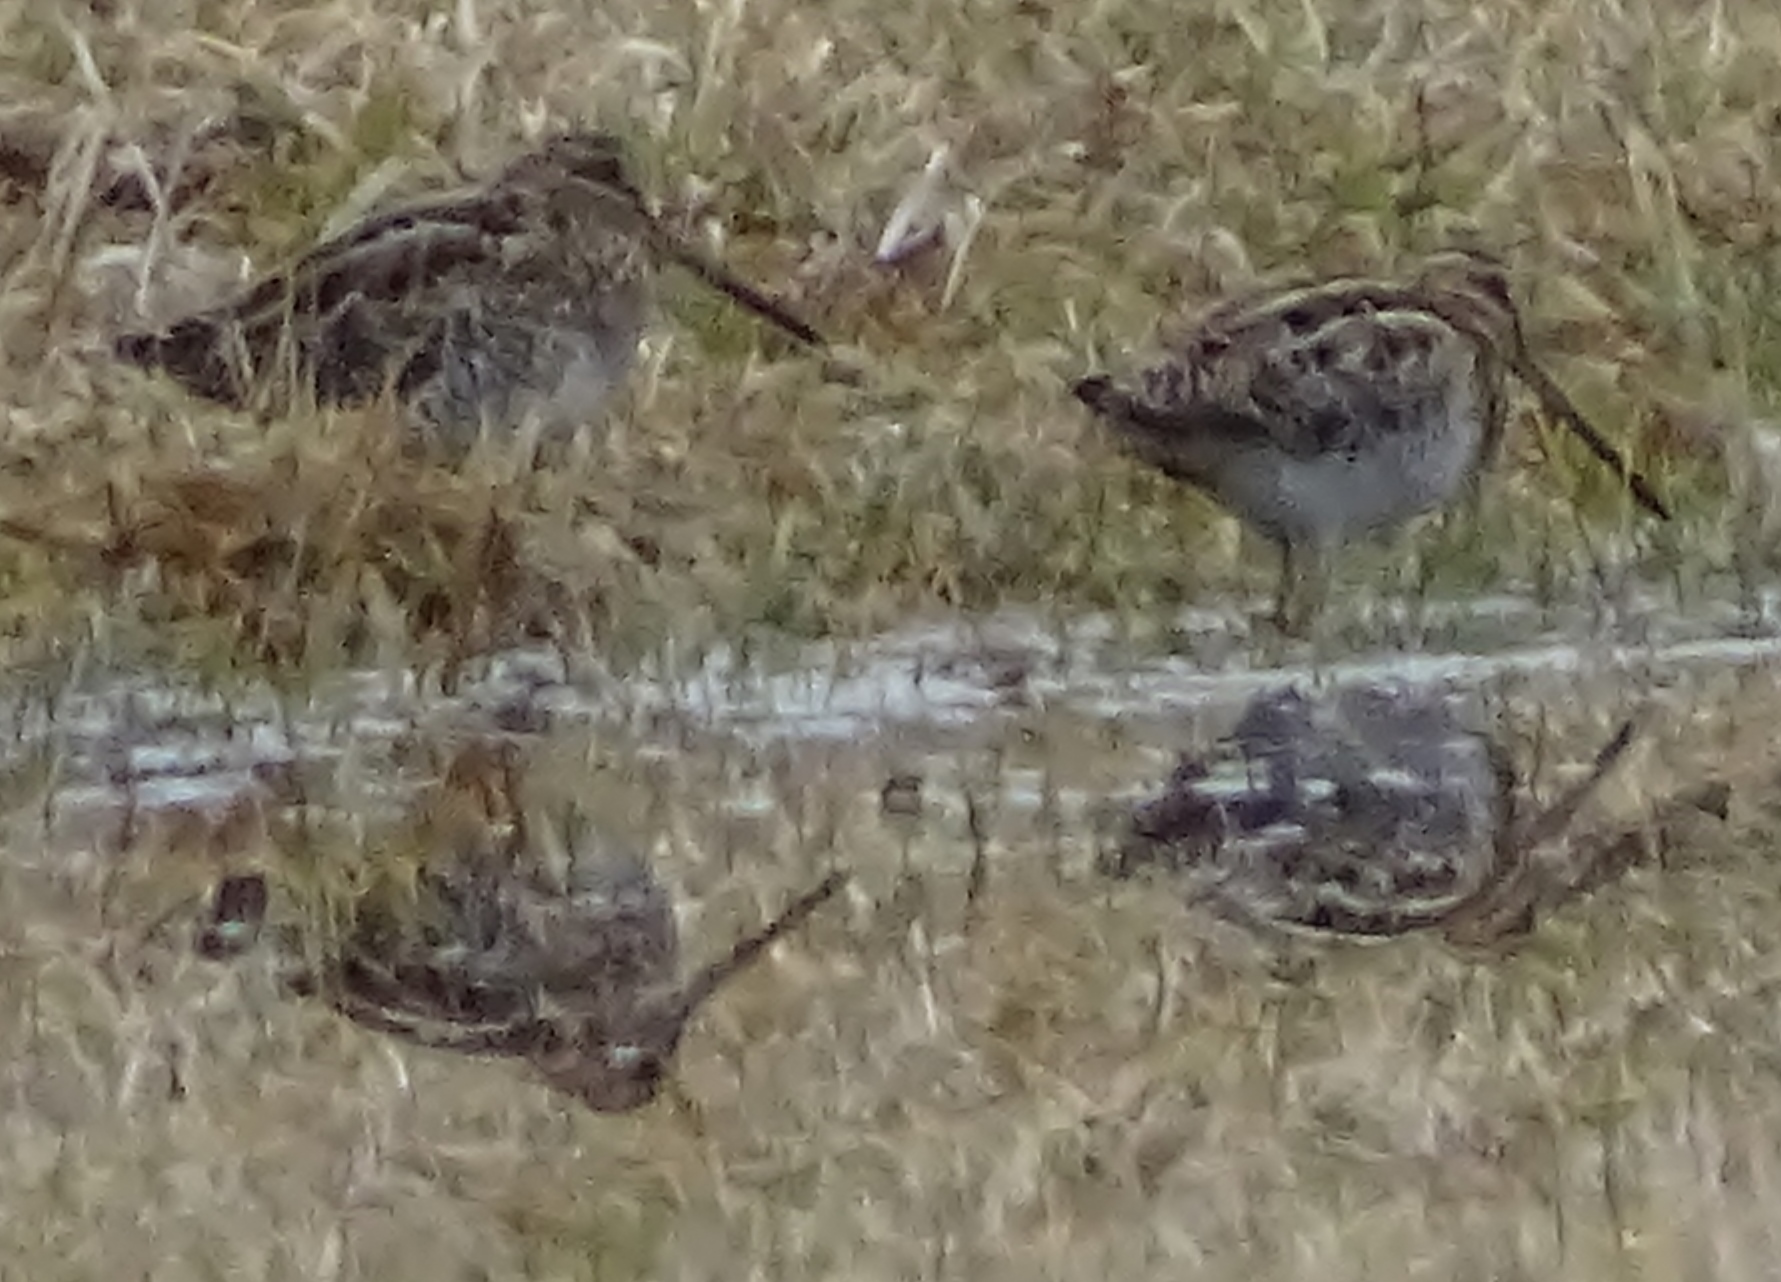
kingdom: Animalia
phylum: Chordata
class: Aves
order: Charadriiformes
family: Scolopacidae
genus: Gallinago
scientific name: Gallinago delicata
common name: Wilson's snipe
